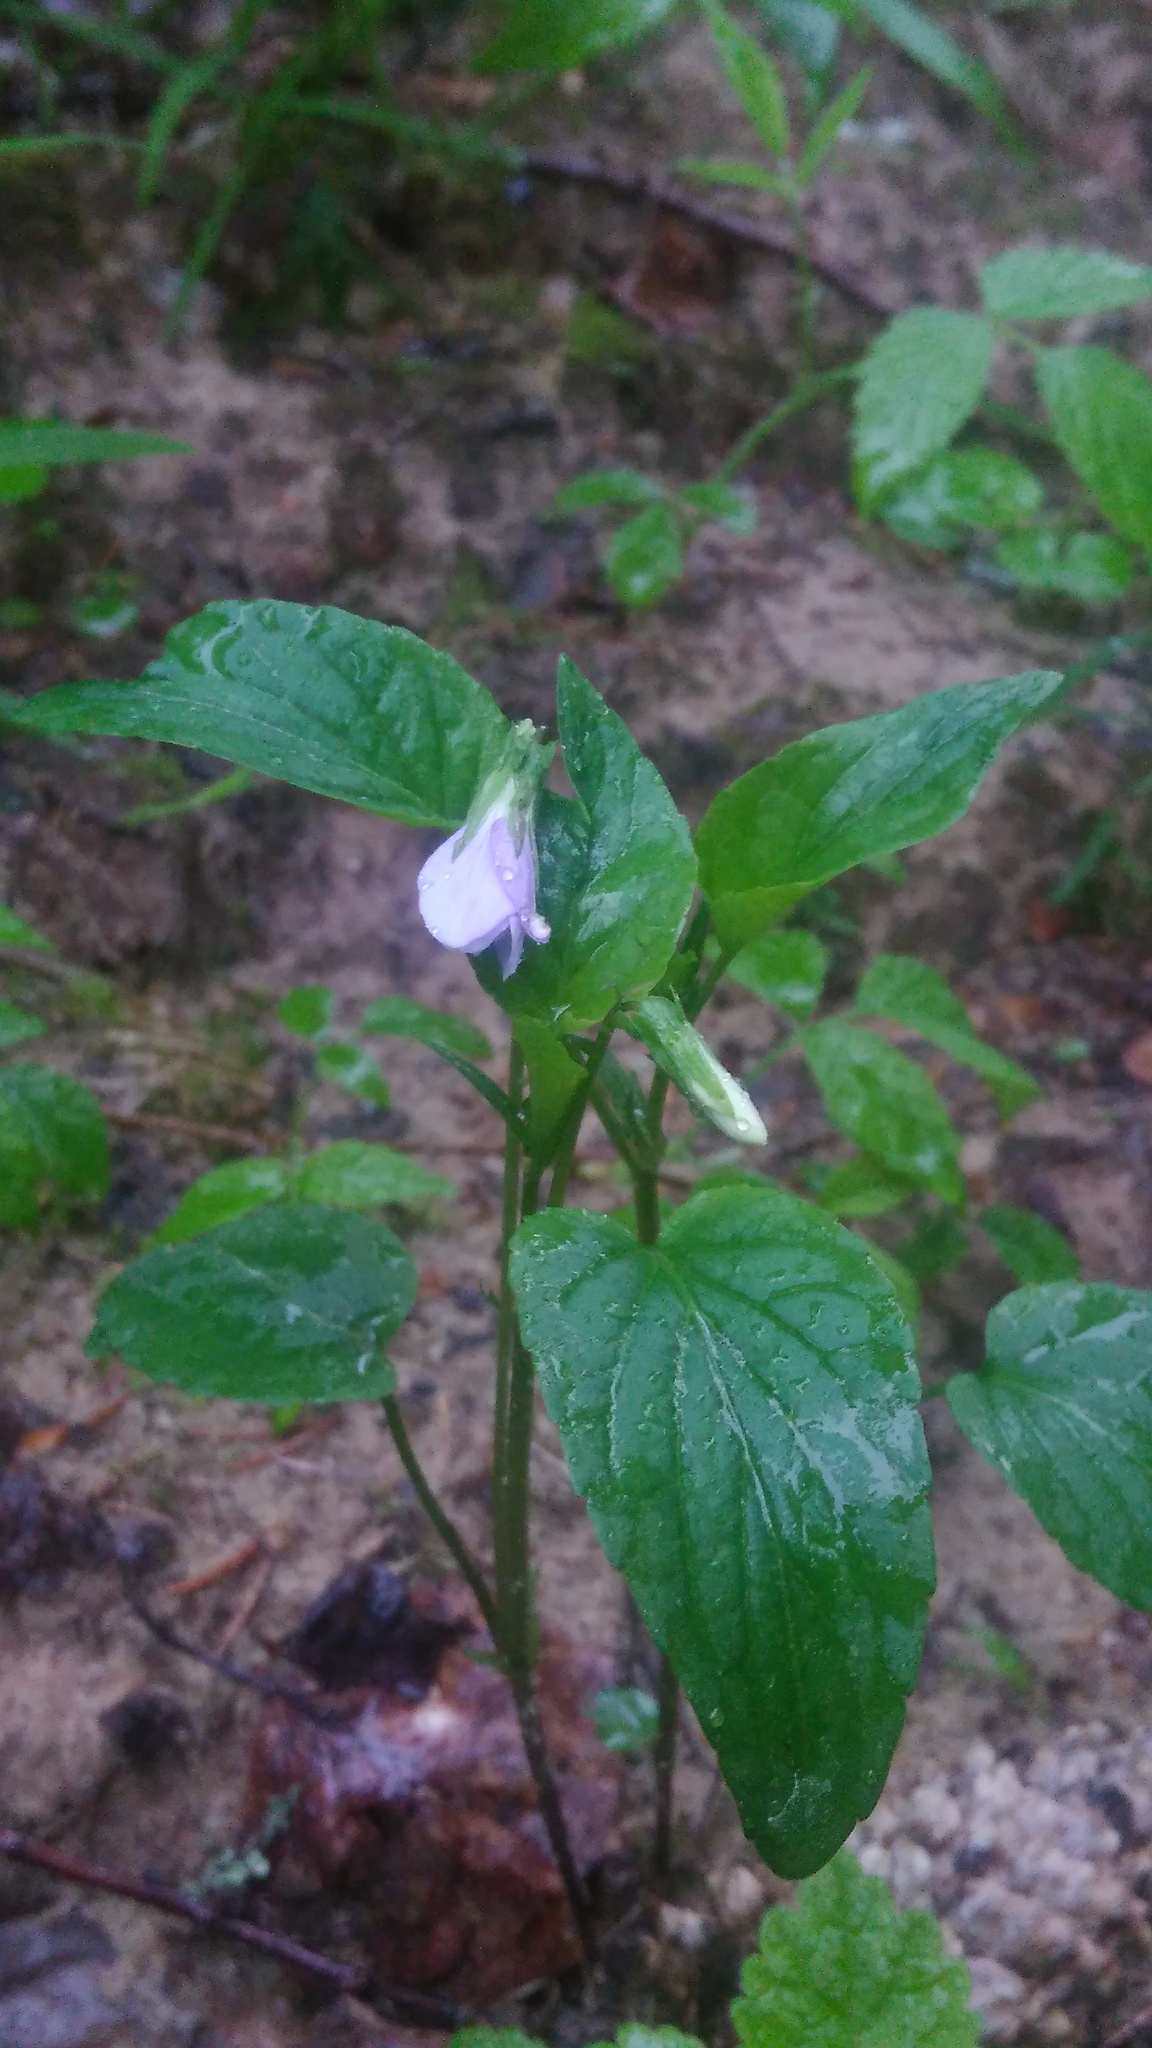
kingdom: Plantae
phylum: Tracheophyta
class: Magnoliopsida
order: Malpighiales
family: Violaceae
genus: Viola
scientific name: Viola canina
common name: Heath dog-violet
